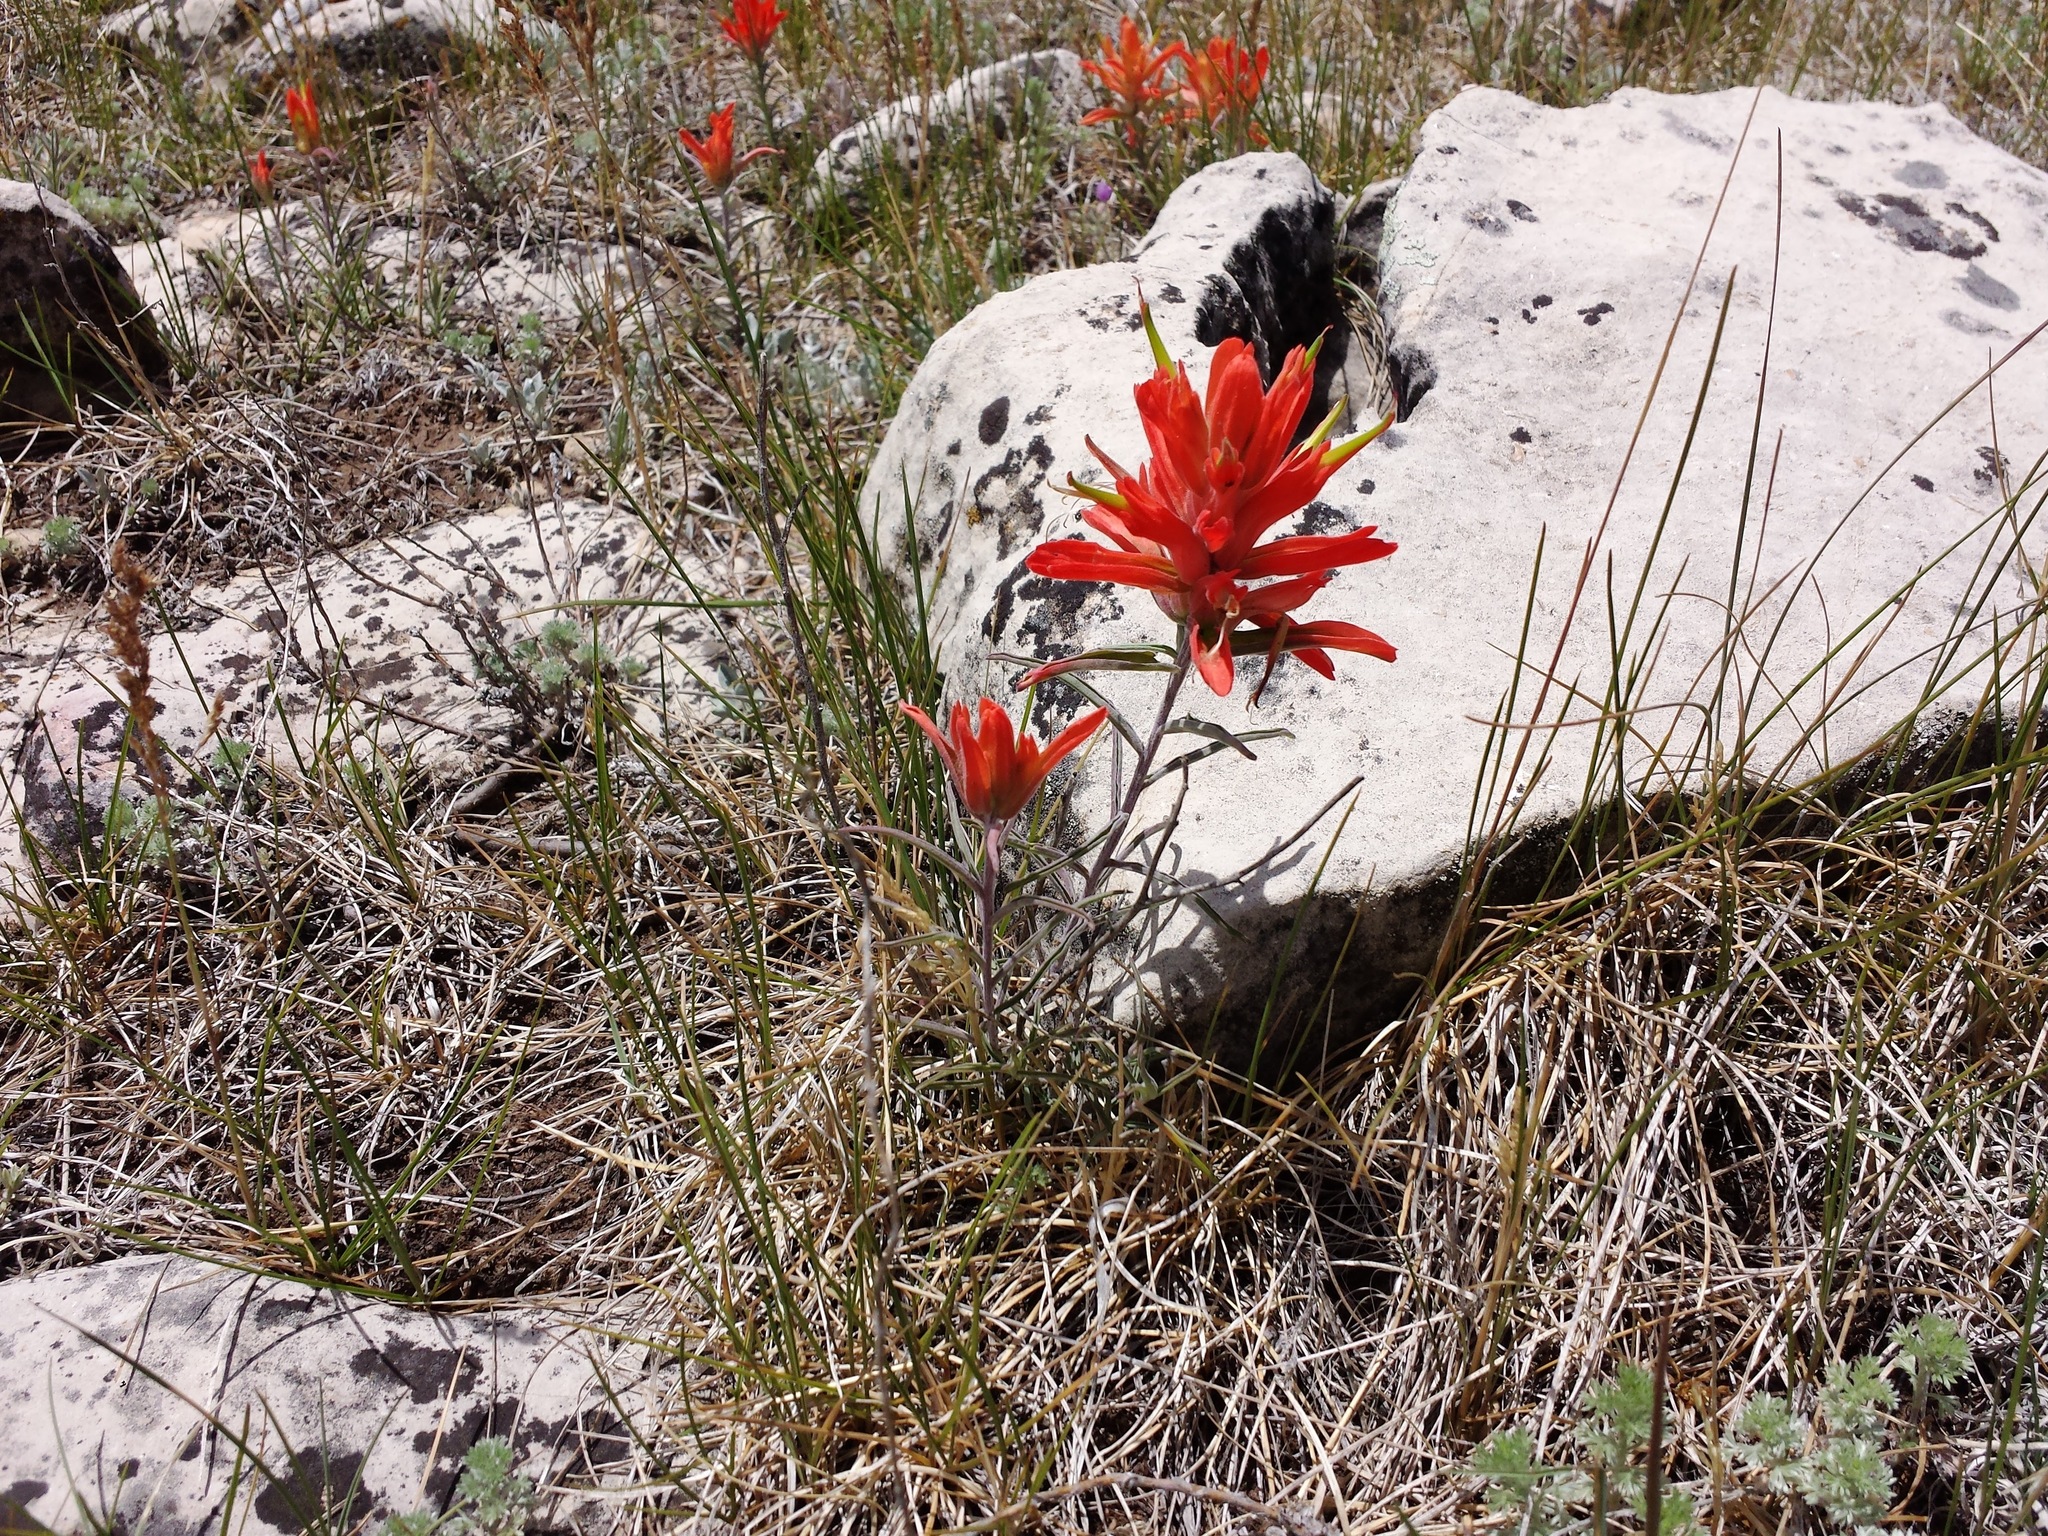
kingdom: Plantae
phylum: Tracheophyta
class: Magnoliopsida
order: Lamiales
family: Orobanchaceae
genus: Castilleja
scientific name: Castilleja integra
